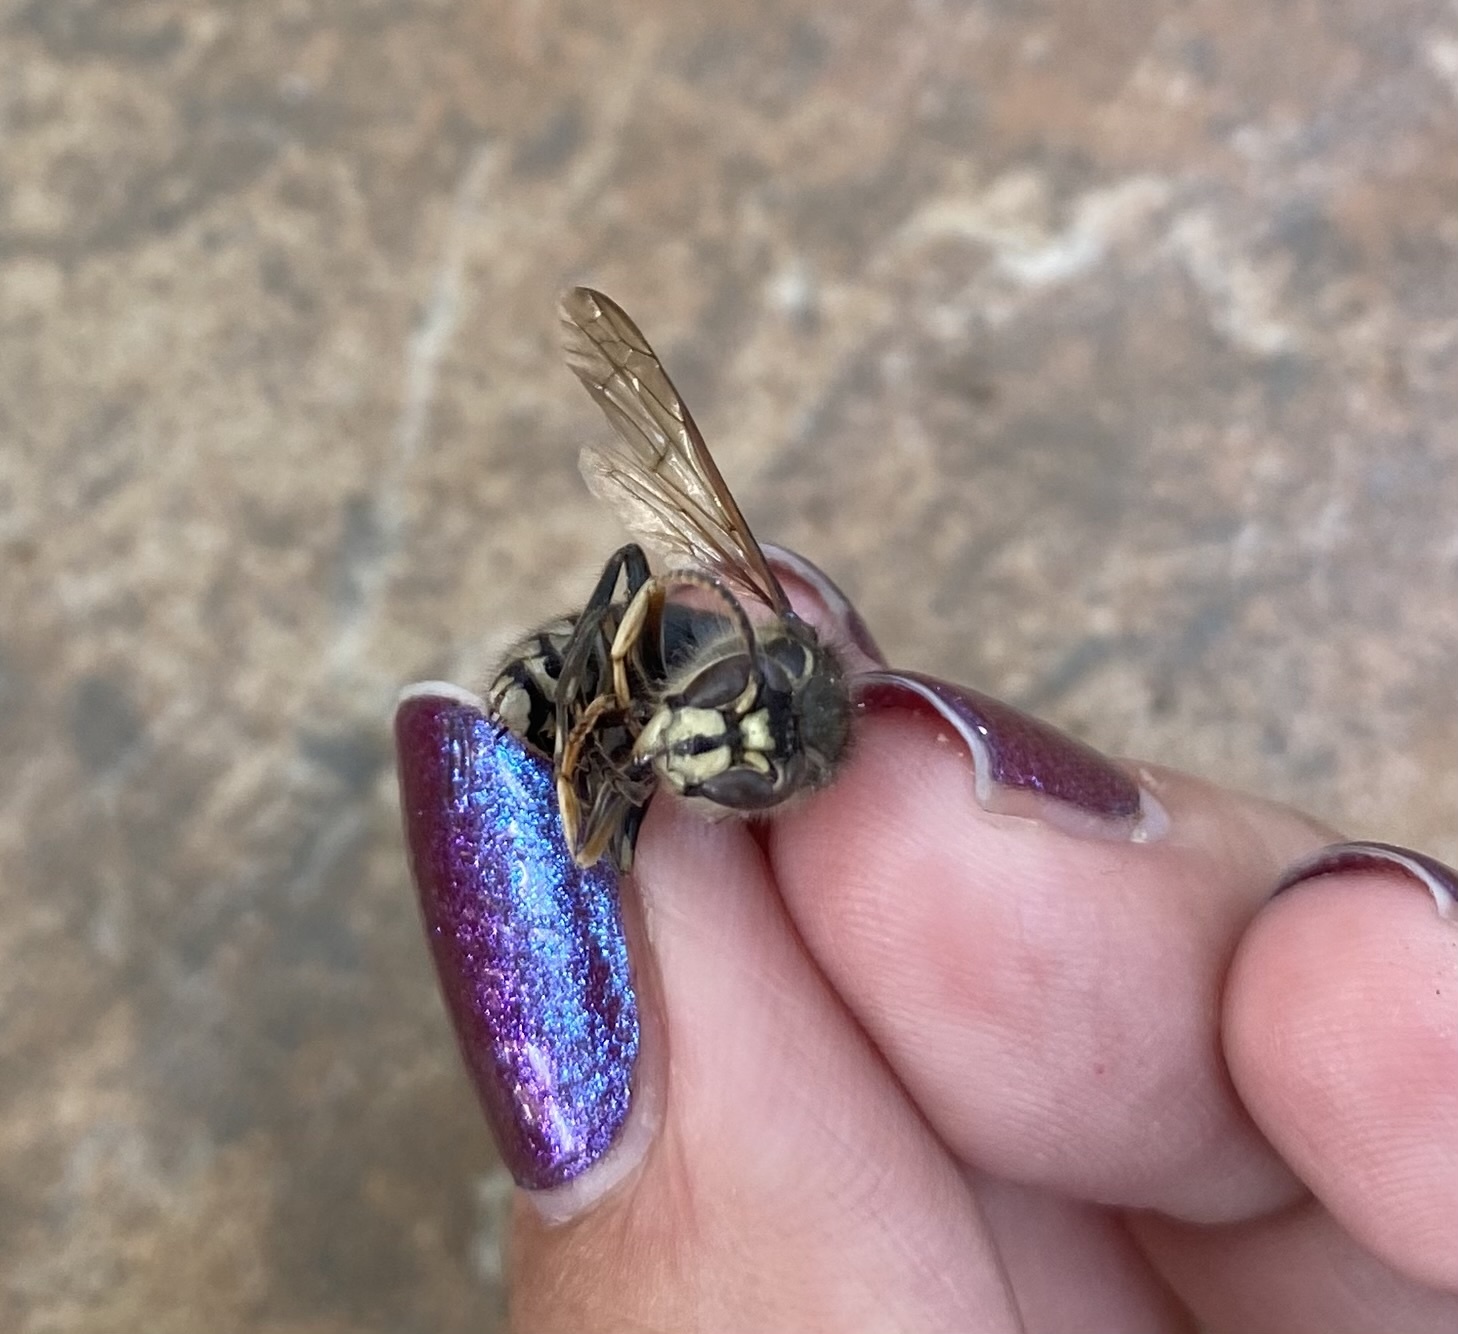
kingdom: Animalia
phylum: Arthropoda
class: Insecta
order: Hymenoptera
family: Vespidae
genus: Dolichovespula
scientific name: Dolichovespula maculata
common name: Bald-faced hornet
